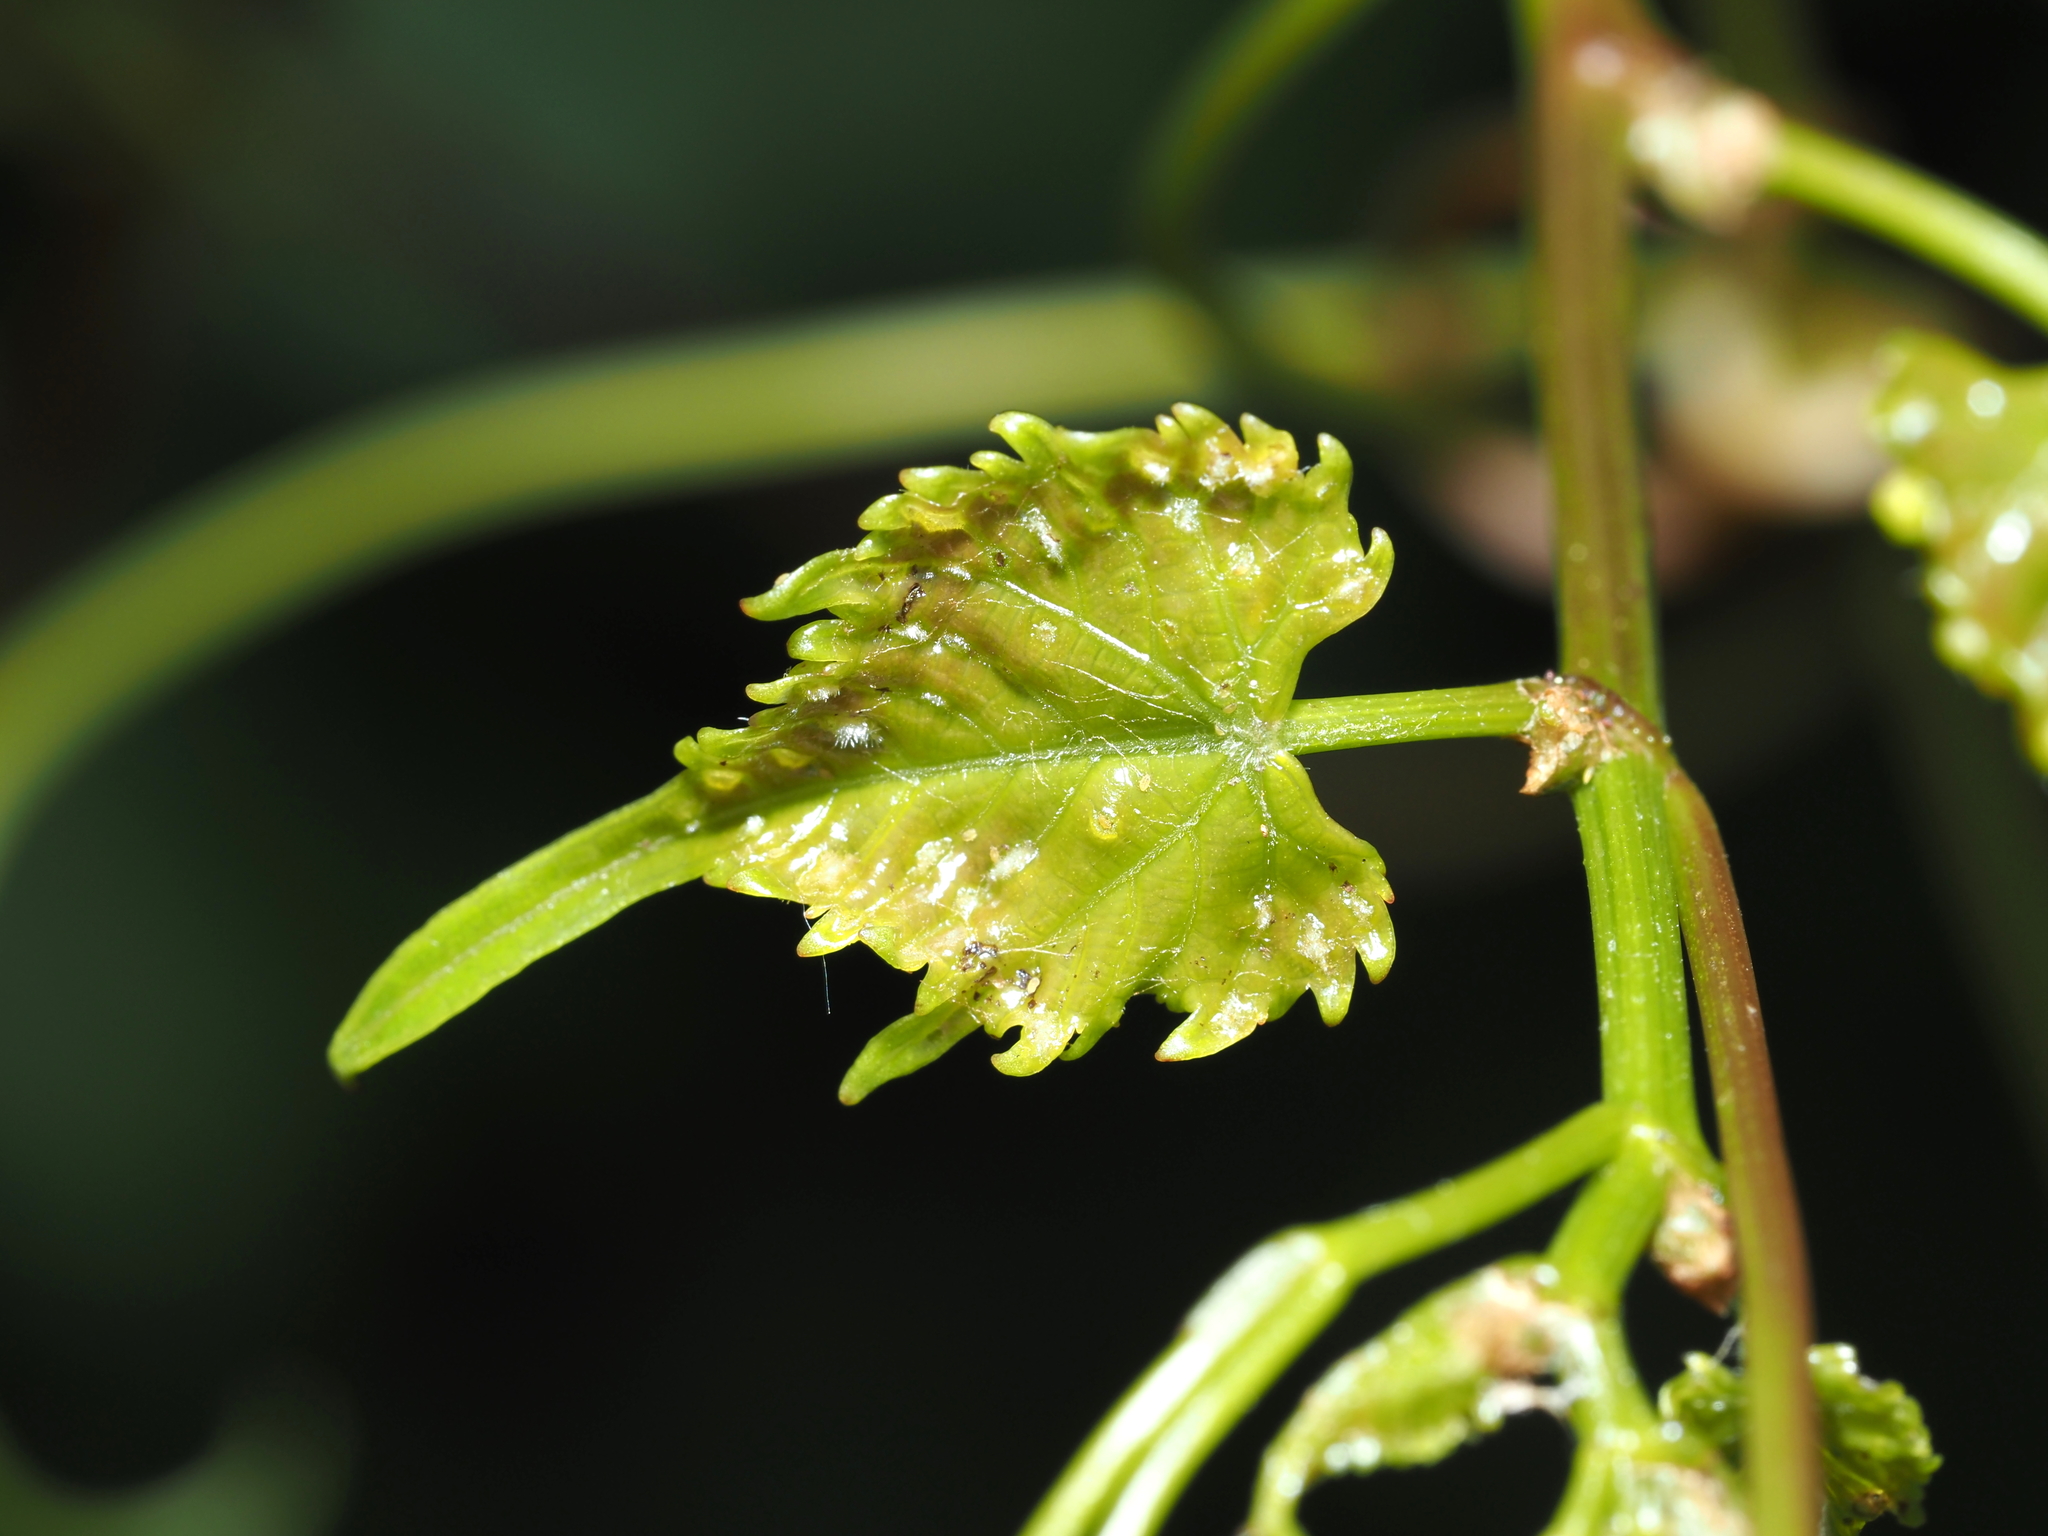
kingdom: Animalia
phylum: Arthropoda
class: Insecta
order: Hemiptera
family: Phylloxeridae
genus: Daktulosphaira
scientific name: Daktulosphaira vitifoliae
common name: Grape phylloxera
